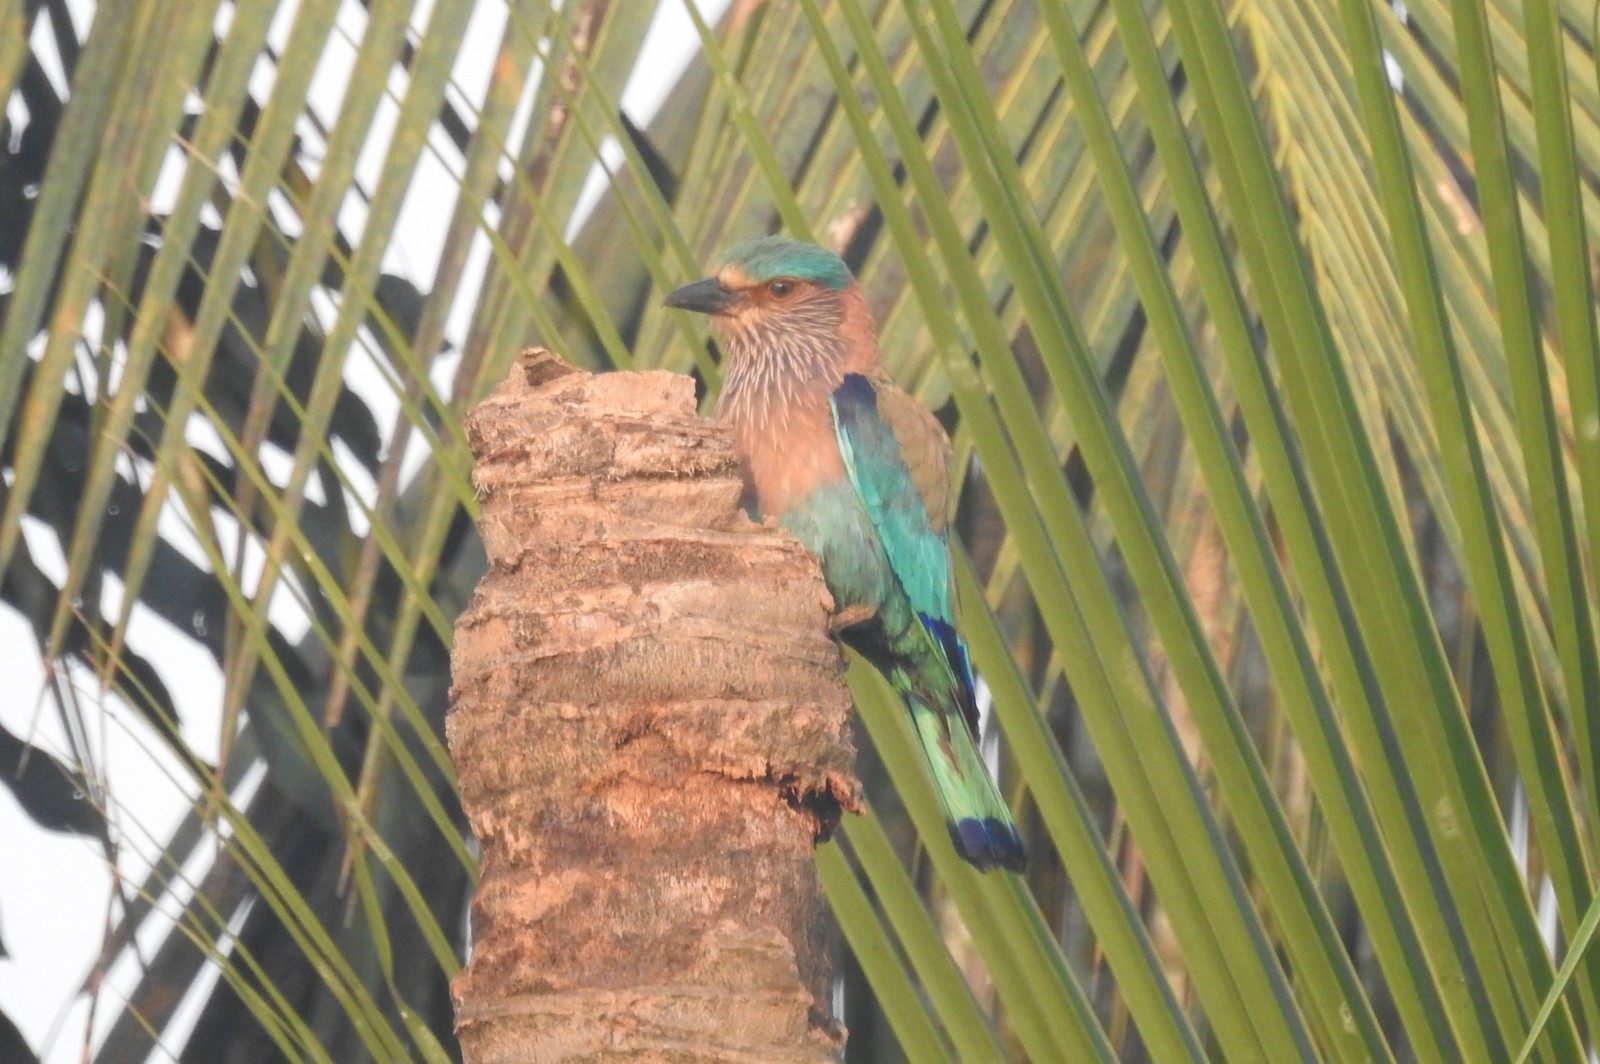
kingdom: Animalia
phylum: Chordata
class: Aves
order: Coraciiformes
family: Coraciidae
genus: Coracias
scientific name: Coracias benghalensis
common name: Indian roller
